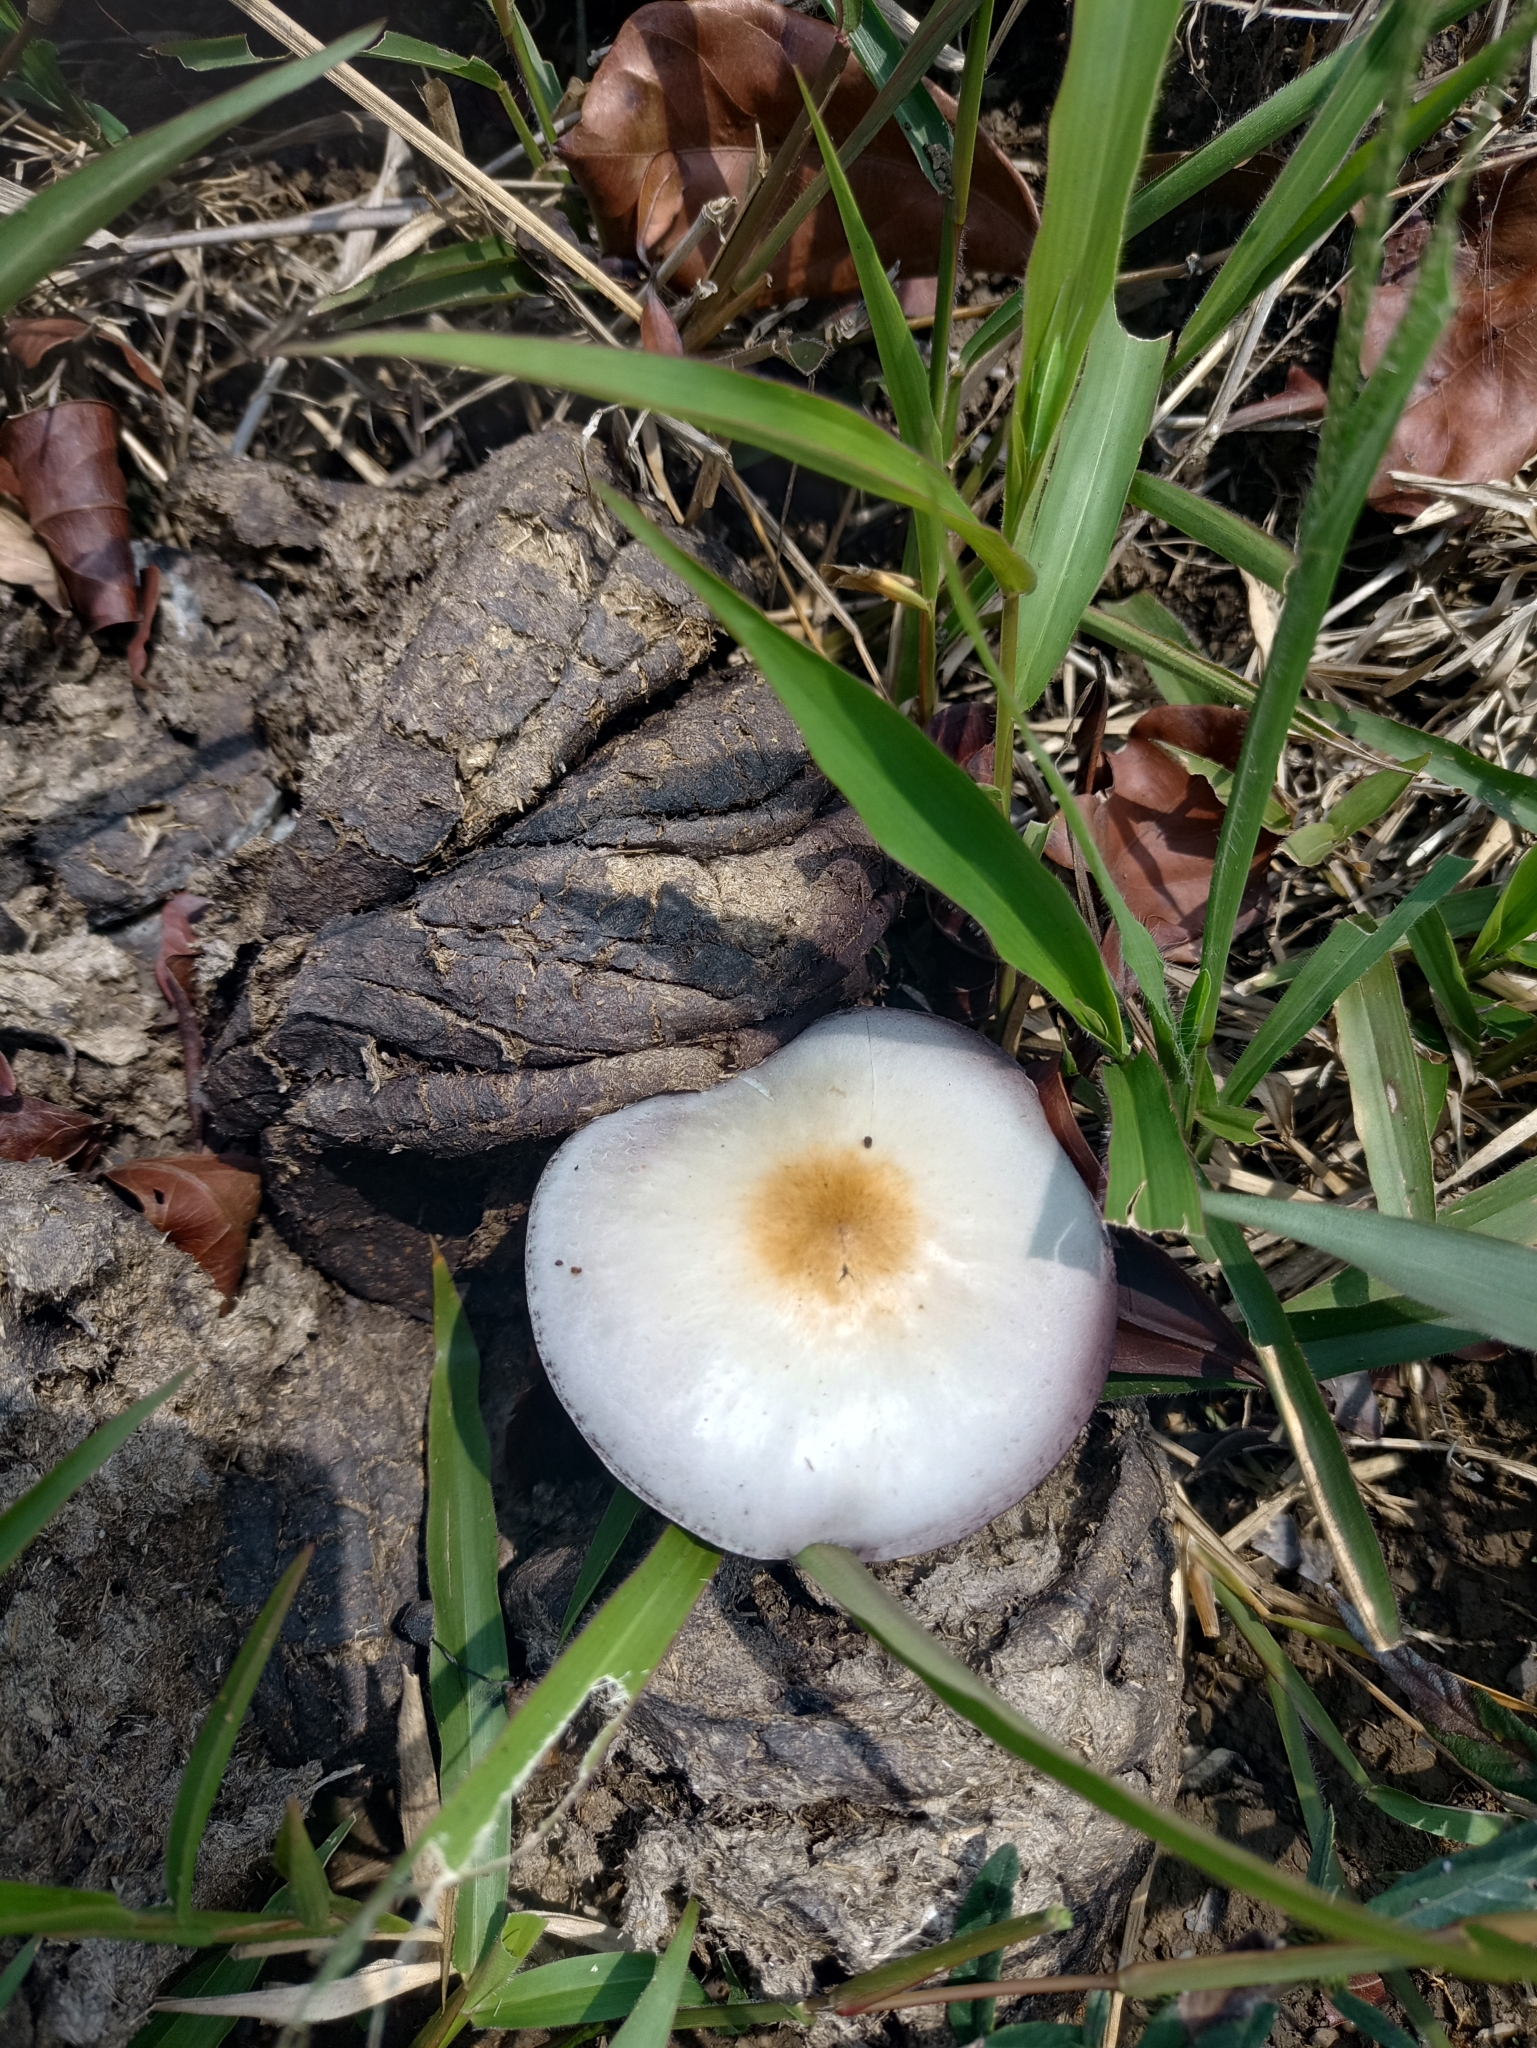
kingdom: Fungi
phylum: Basidiomycota
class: Agaricomycetes
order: Agaricales
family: Hymenogastraceae
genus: Psilocybe
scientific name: Psilocybe cubensis
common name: Golden brownie
